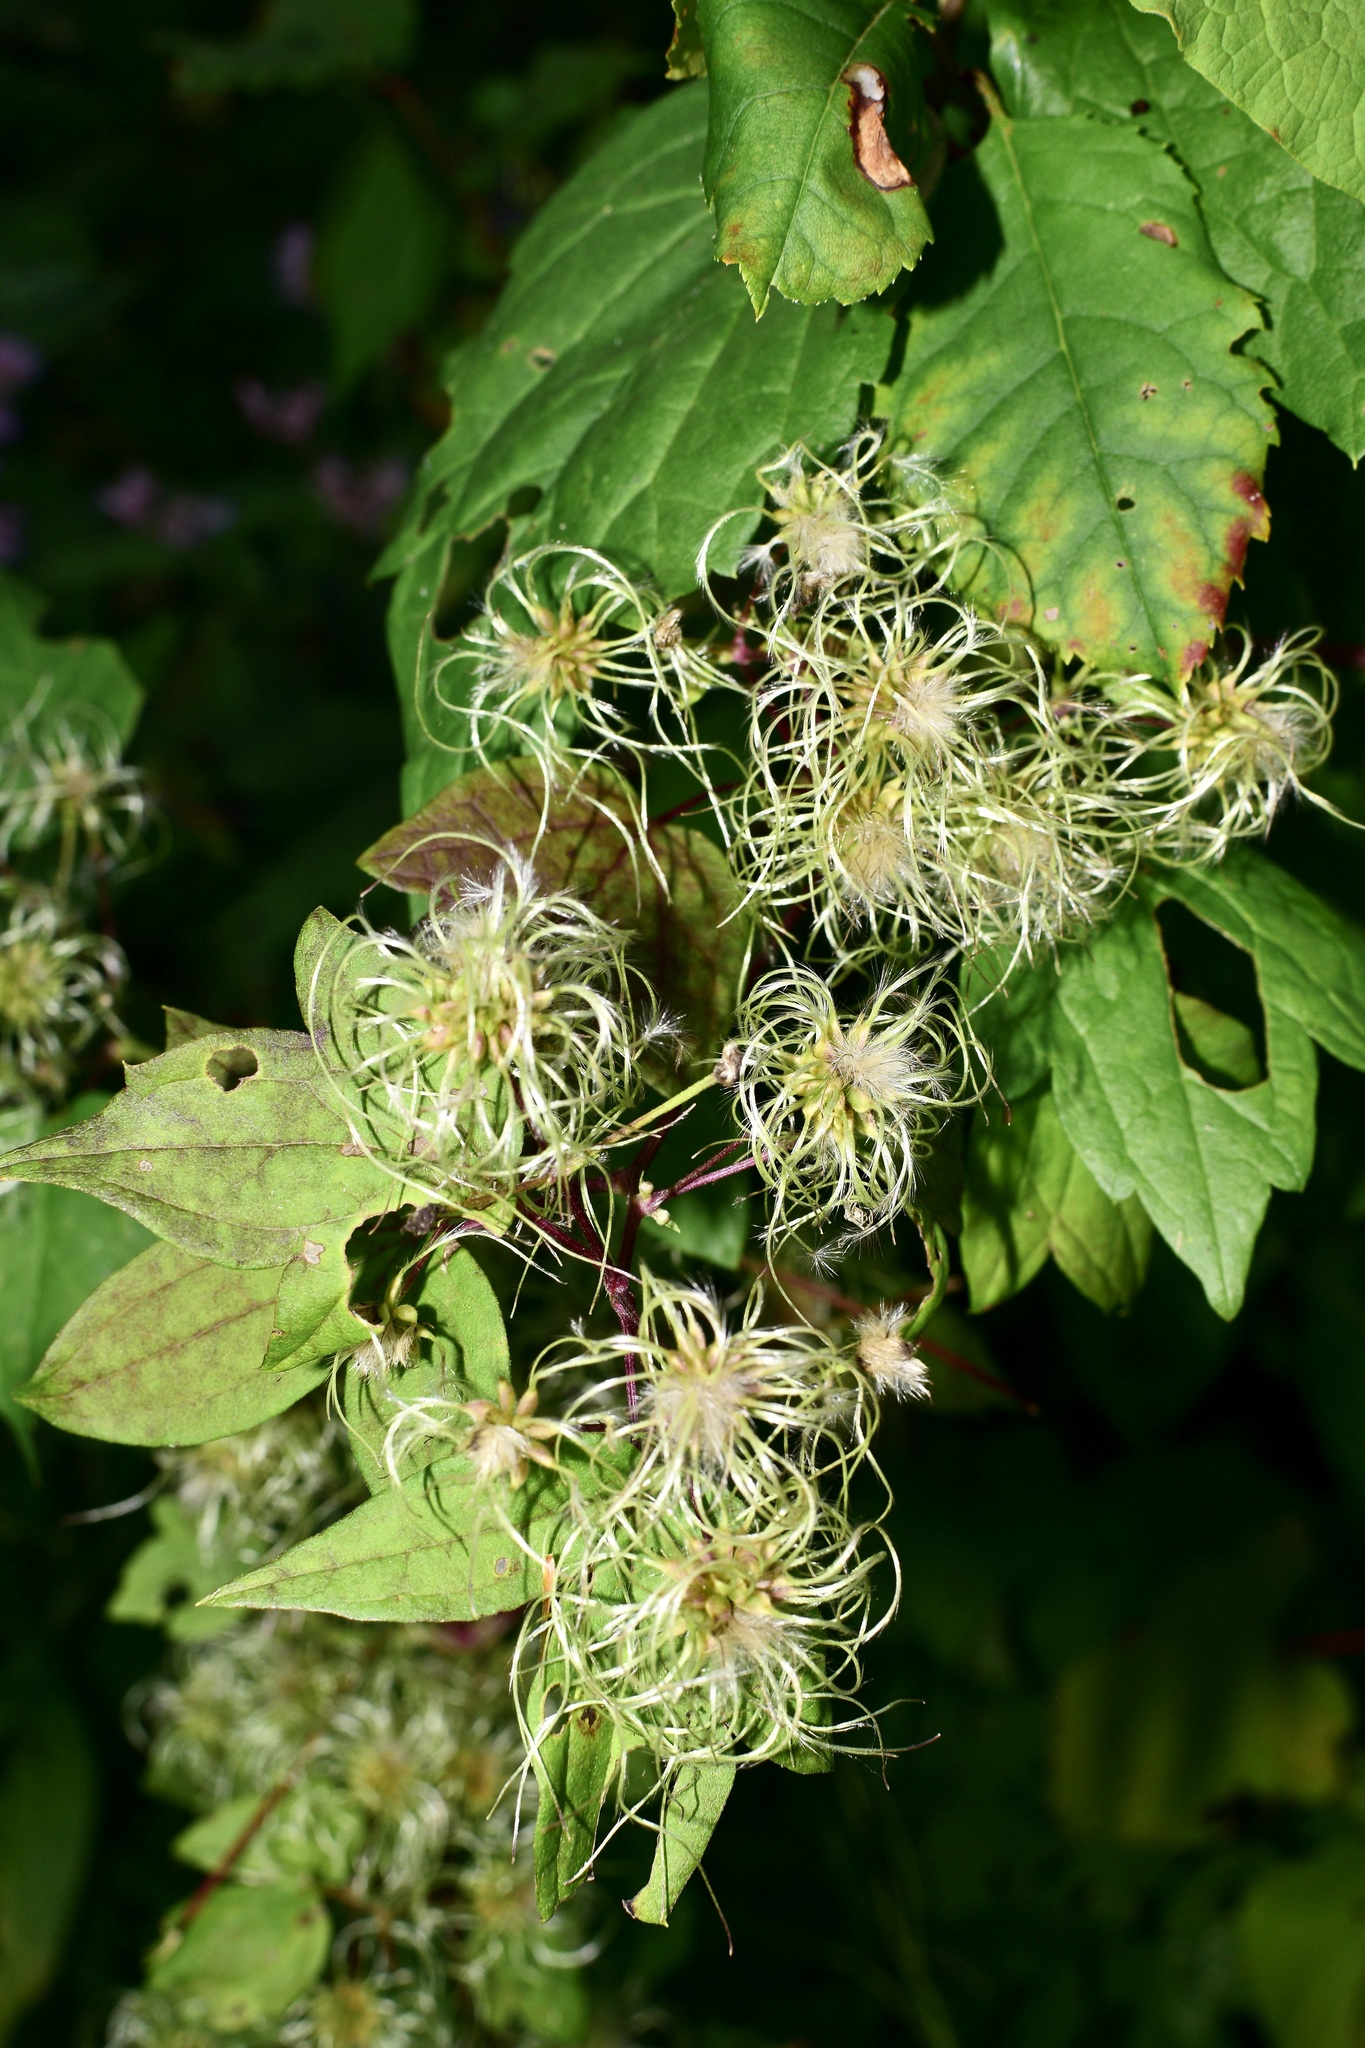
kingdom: Plantae
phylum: Tracheophyta
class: Magnoliopsida
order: Ranunculales
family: Ranunculaceae
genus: Clematis
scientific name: Clematis virginiana
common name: Virgin's-bower
